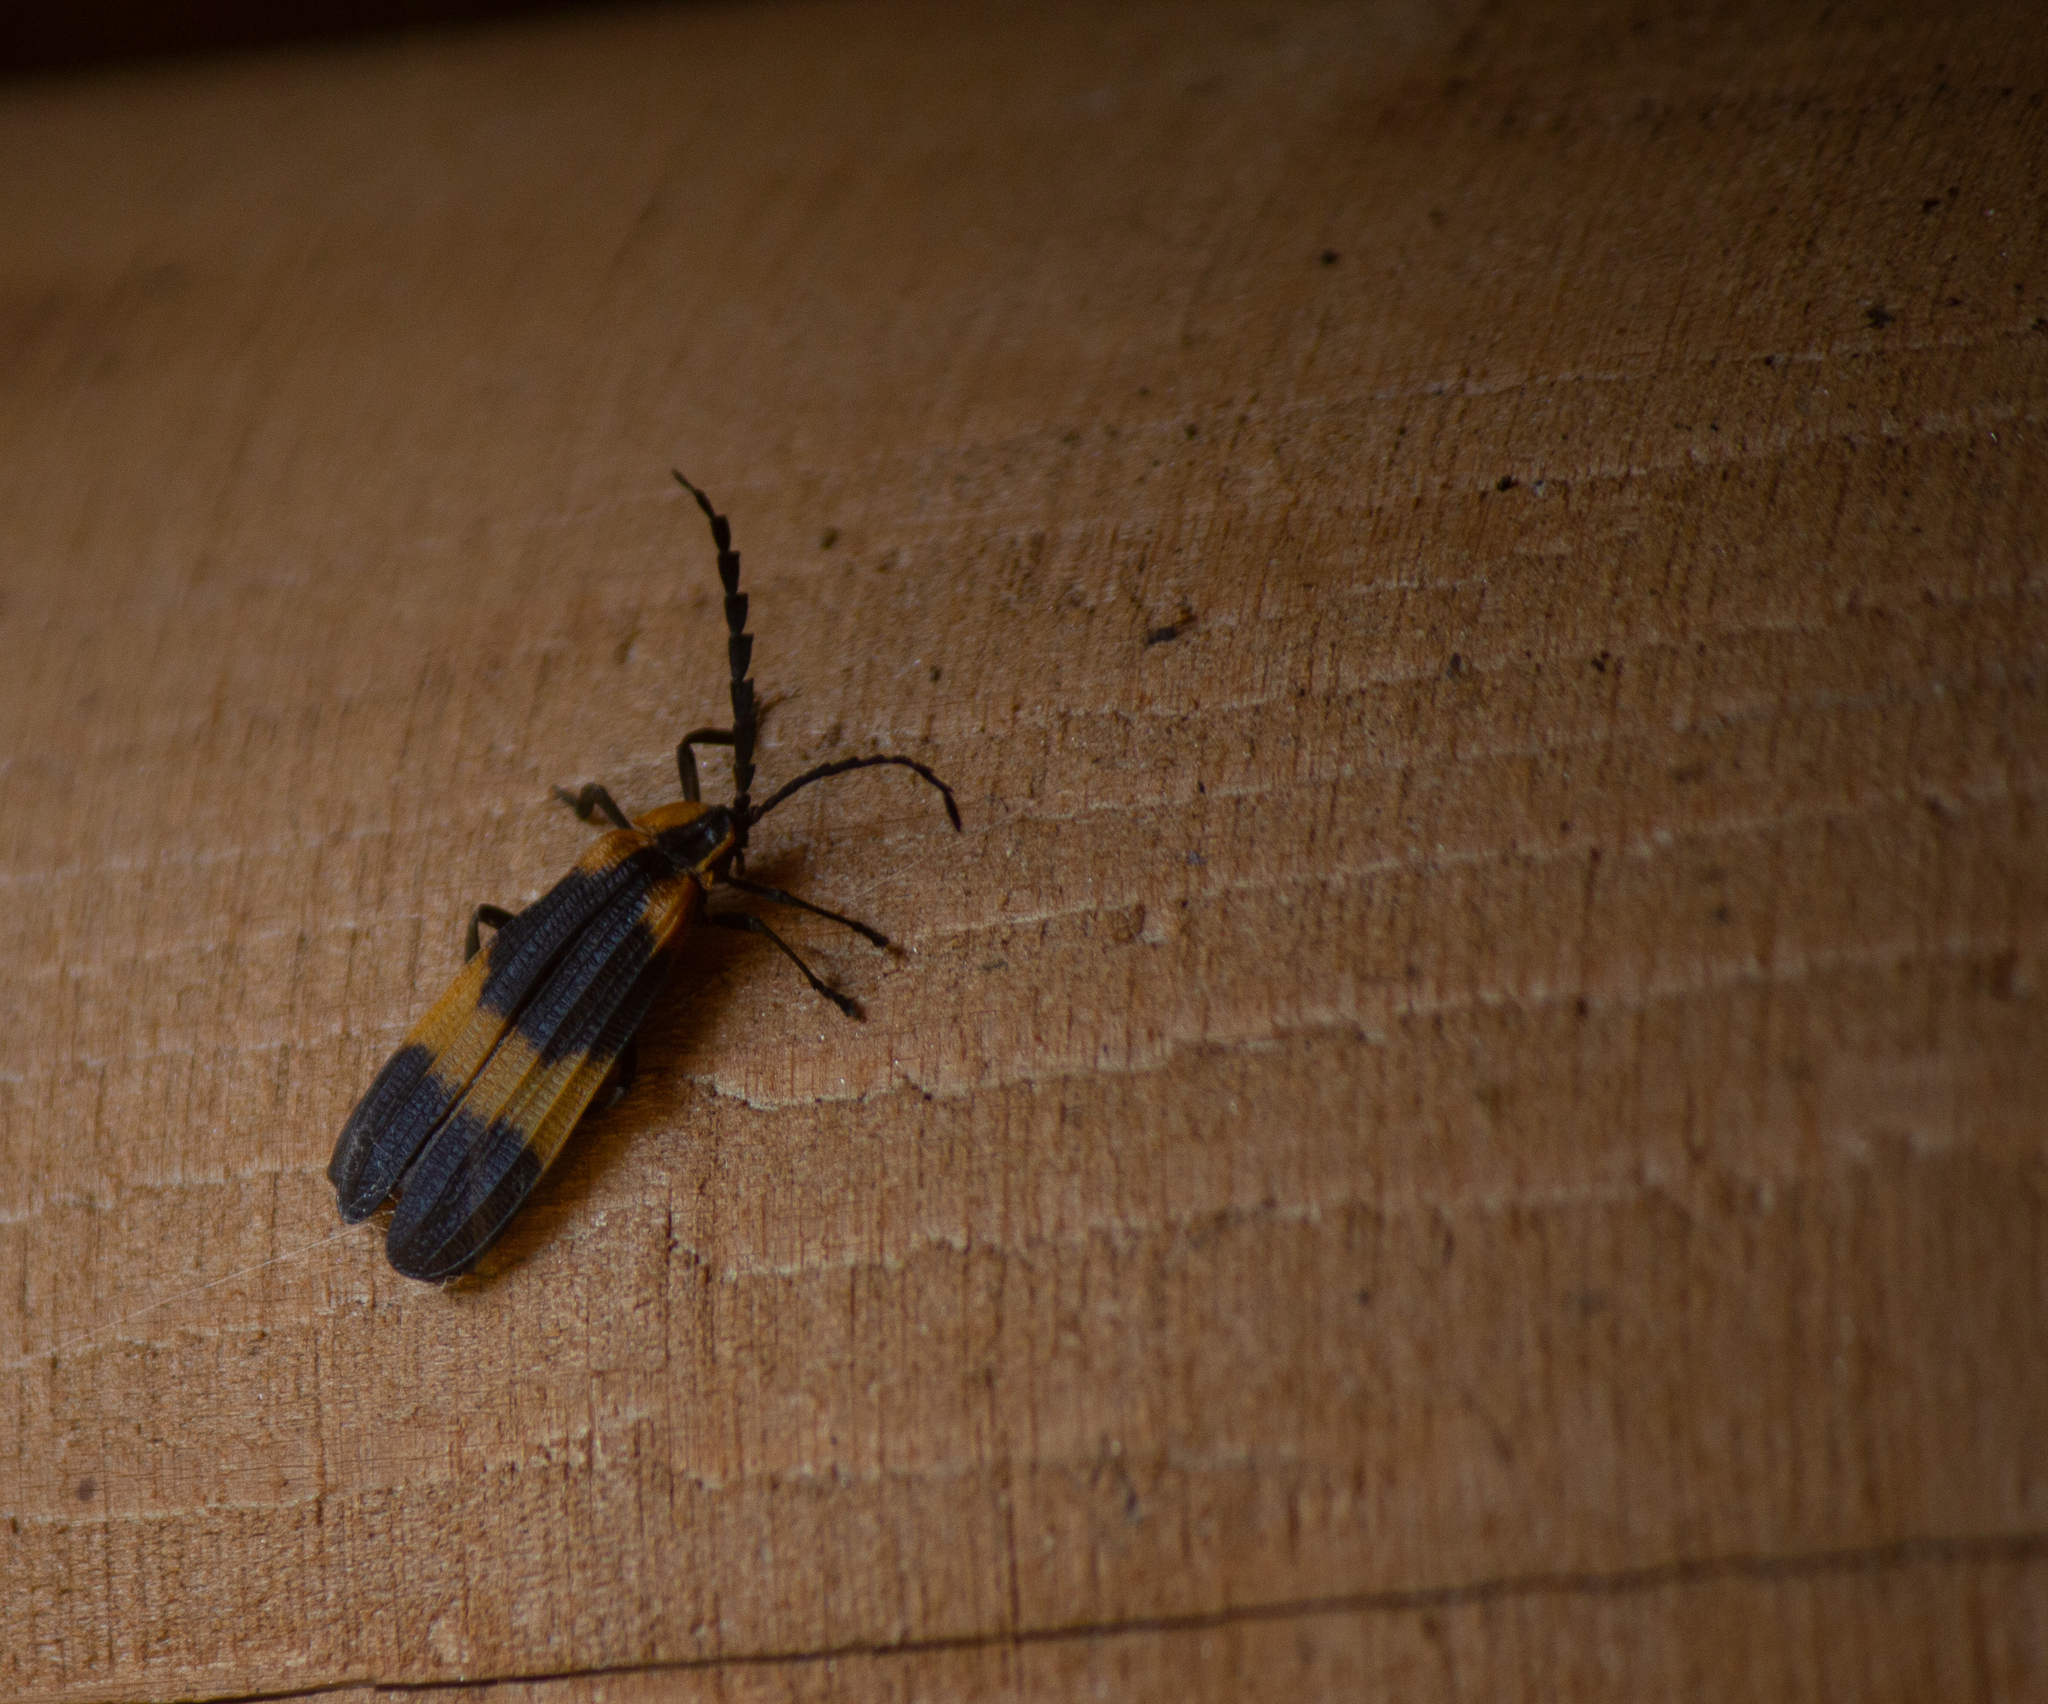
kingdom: Animalia
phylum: Arthropoda
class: Insecta
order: Coleoptera
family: Lycidae
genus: Calopteron
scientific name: Calopteron reticulatum
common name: Banded net-winged beetle
